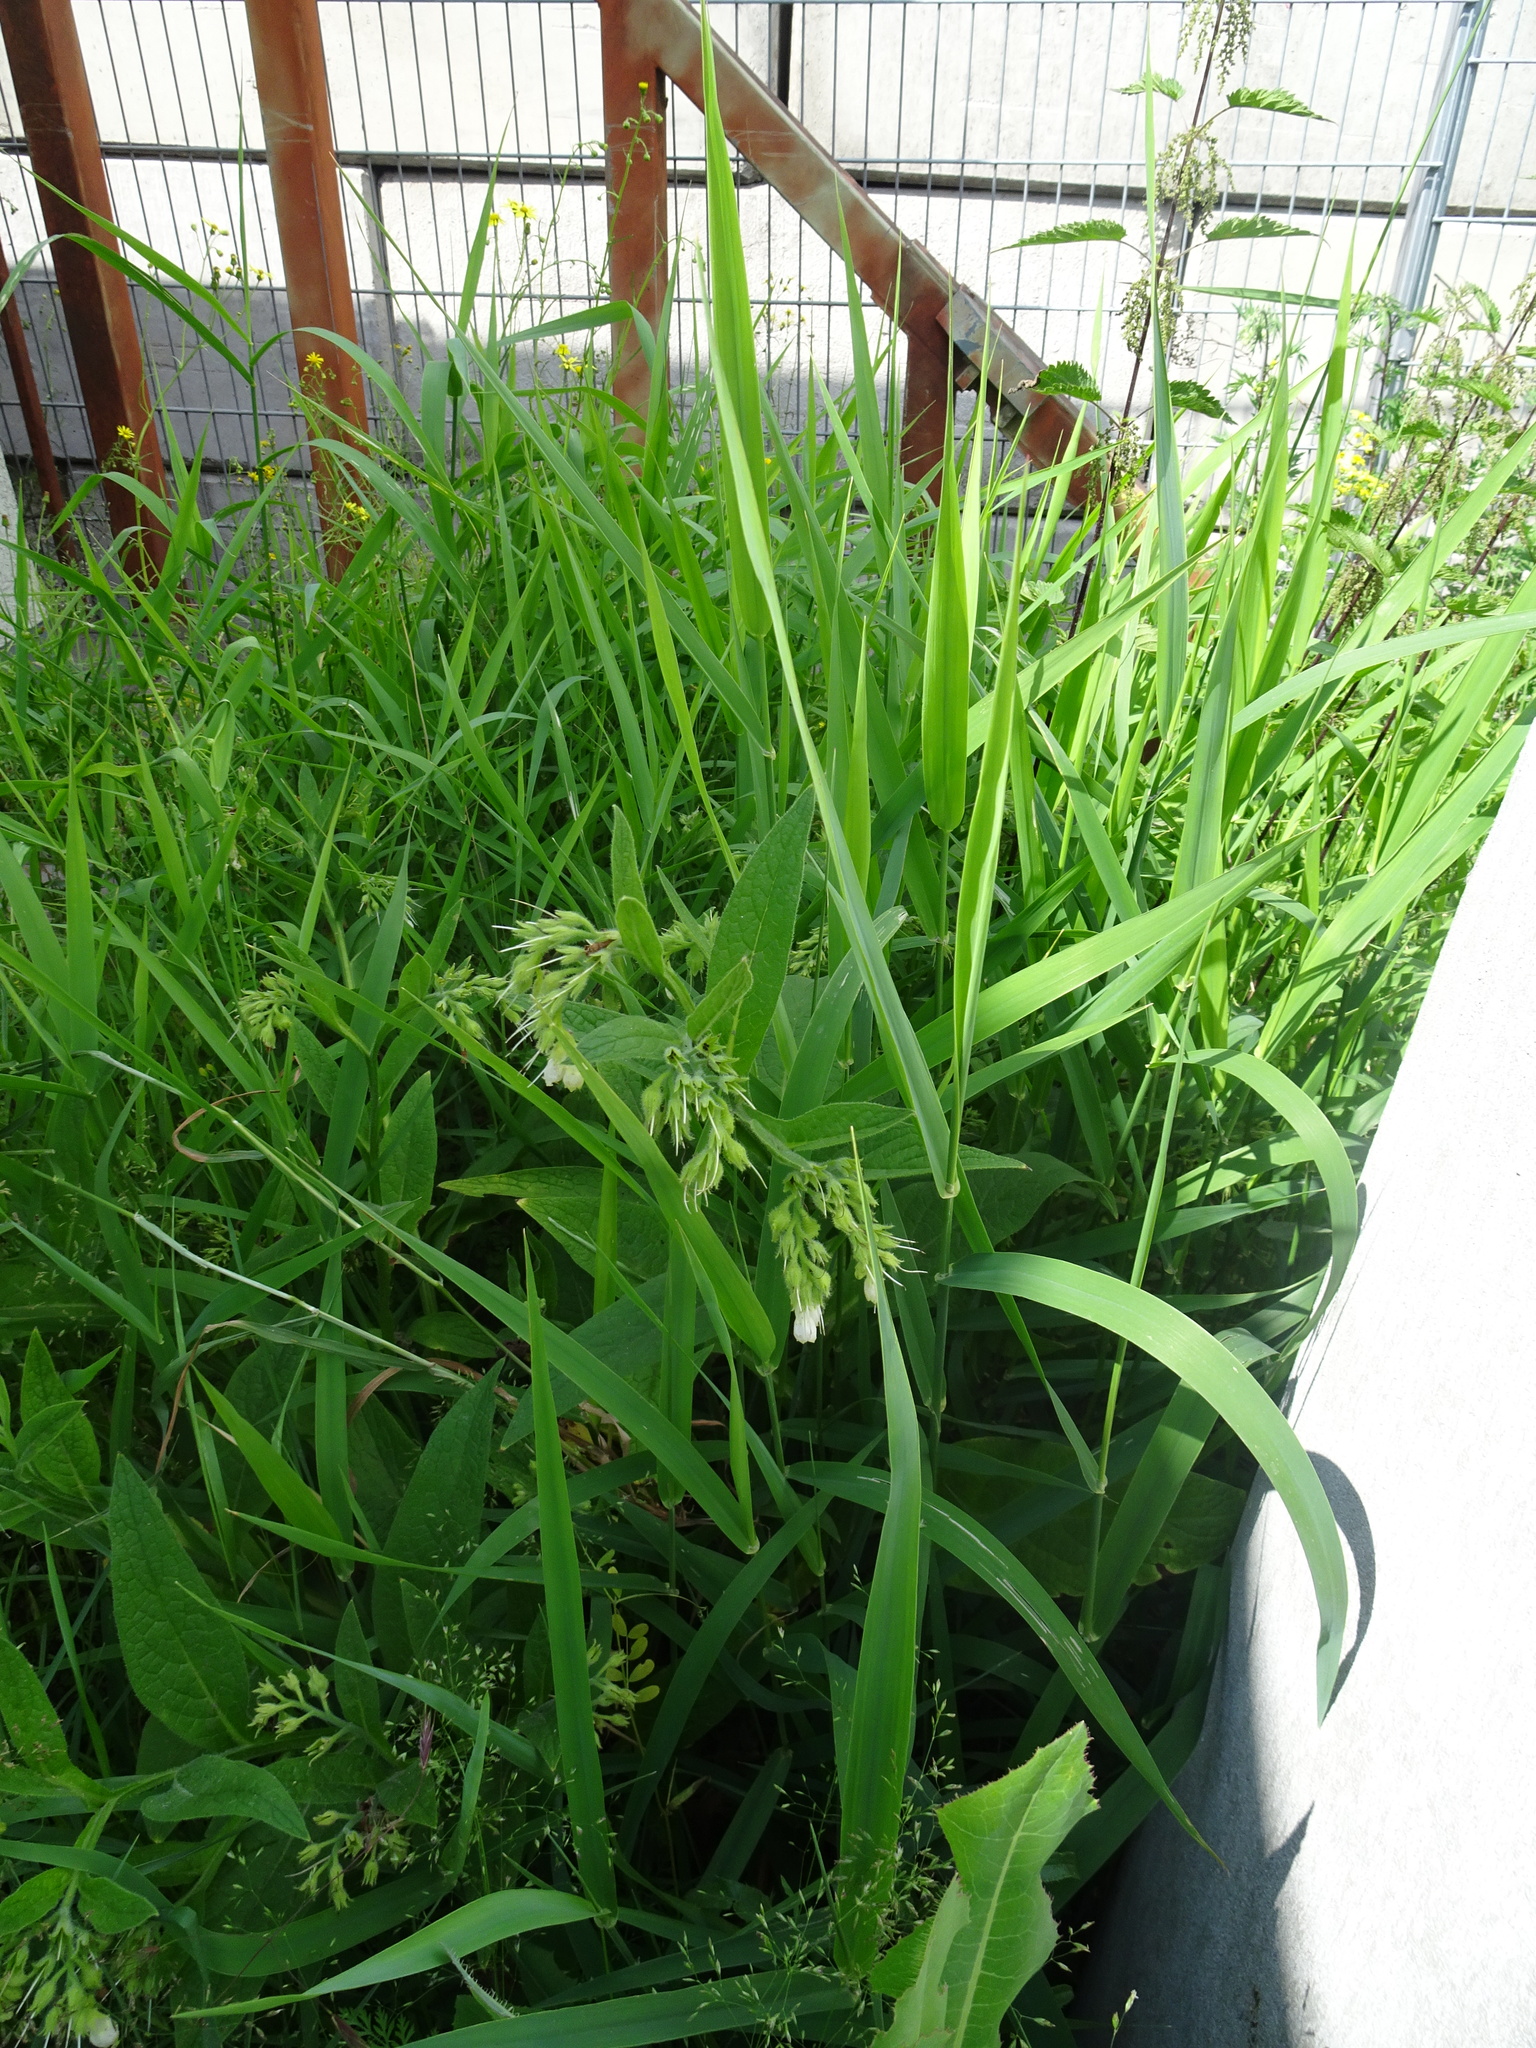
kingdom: Plantae
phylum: Tracheophyta
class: Liliopsida
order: Poales
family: Poaceae
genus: Phalaris
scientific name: Phalaris arundinacea
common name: Reed canary-grass
